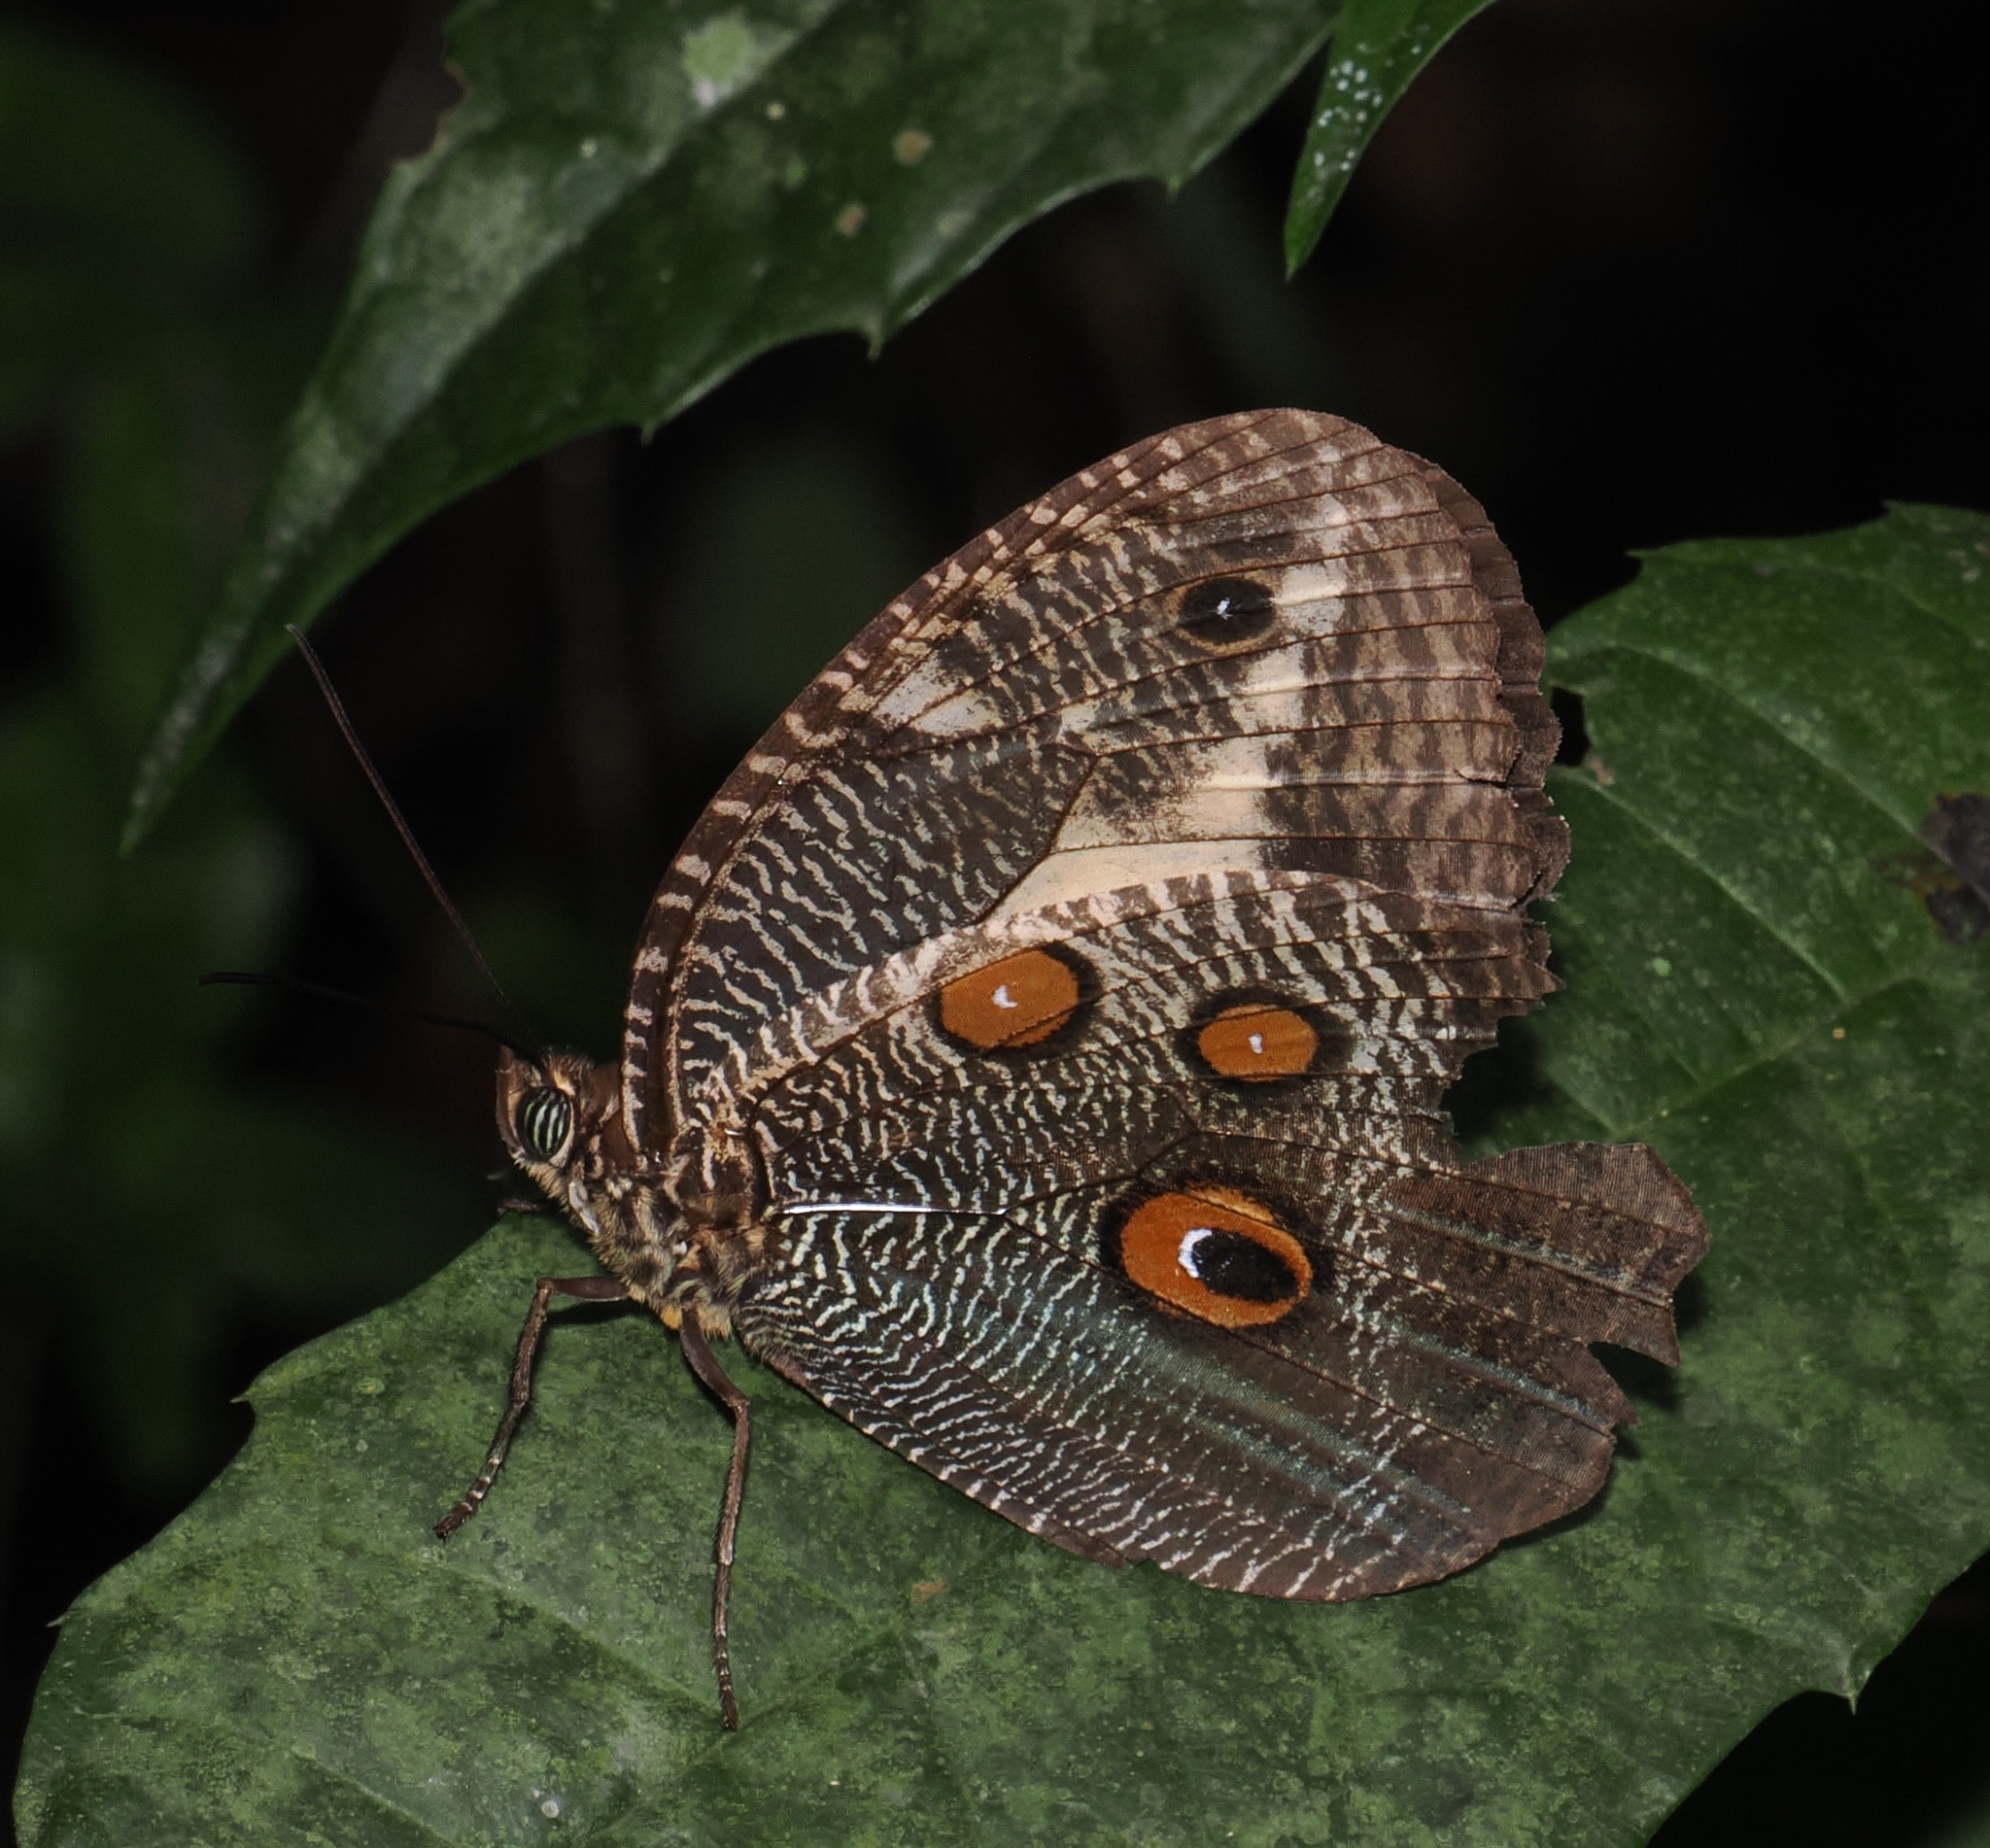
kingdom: Animalia
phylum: Arthropoda
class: Insecta
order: Lepidoptera
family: Nymphalidae
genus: Dasyophthalma
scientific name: Dasyophthalma creusa
